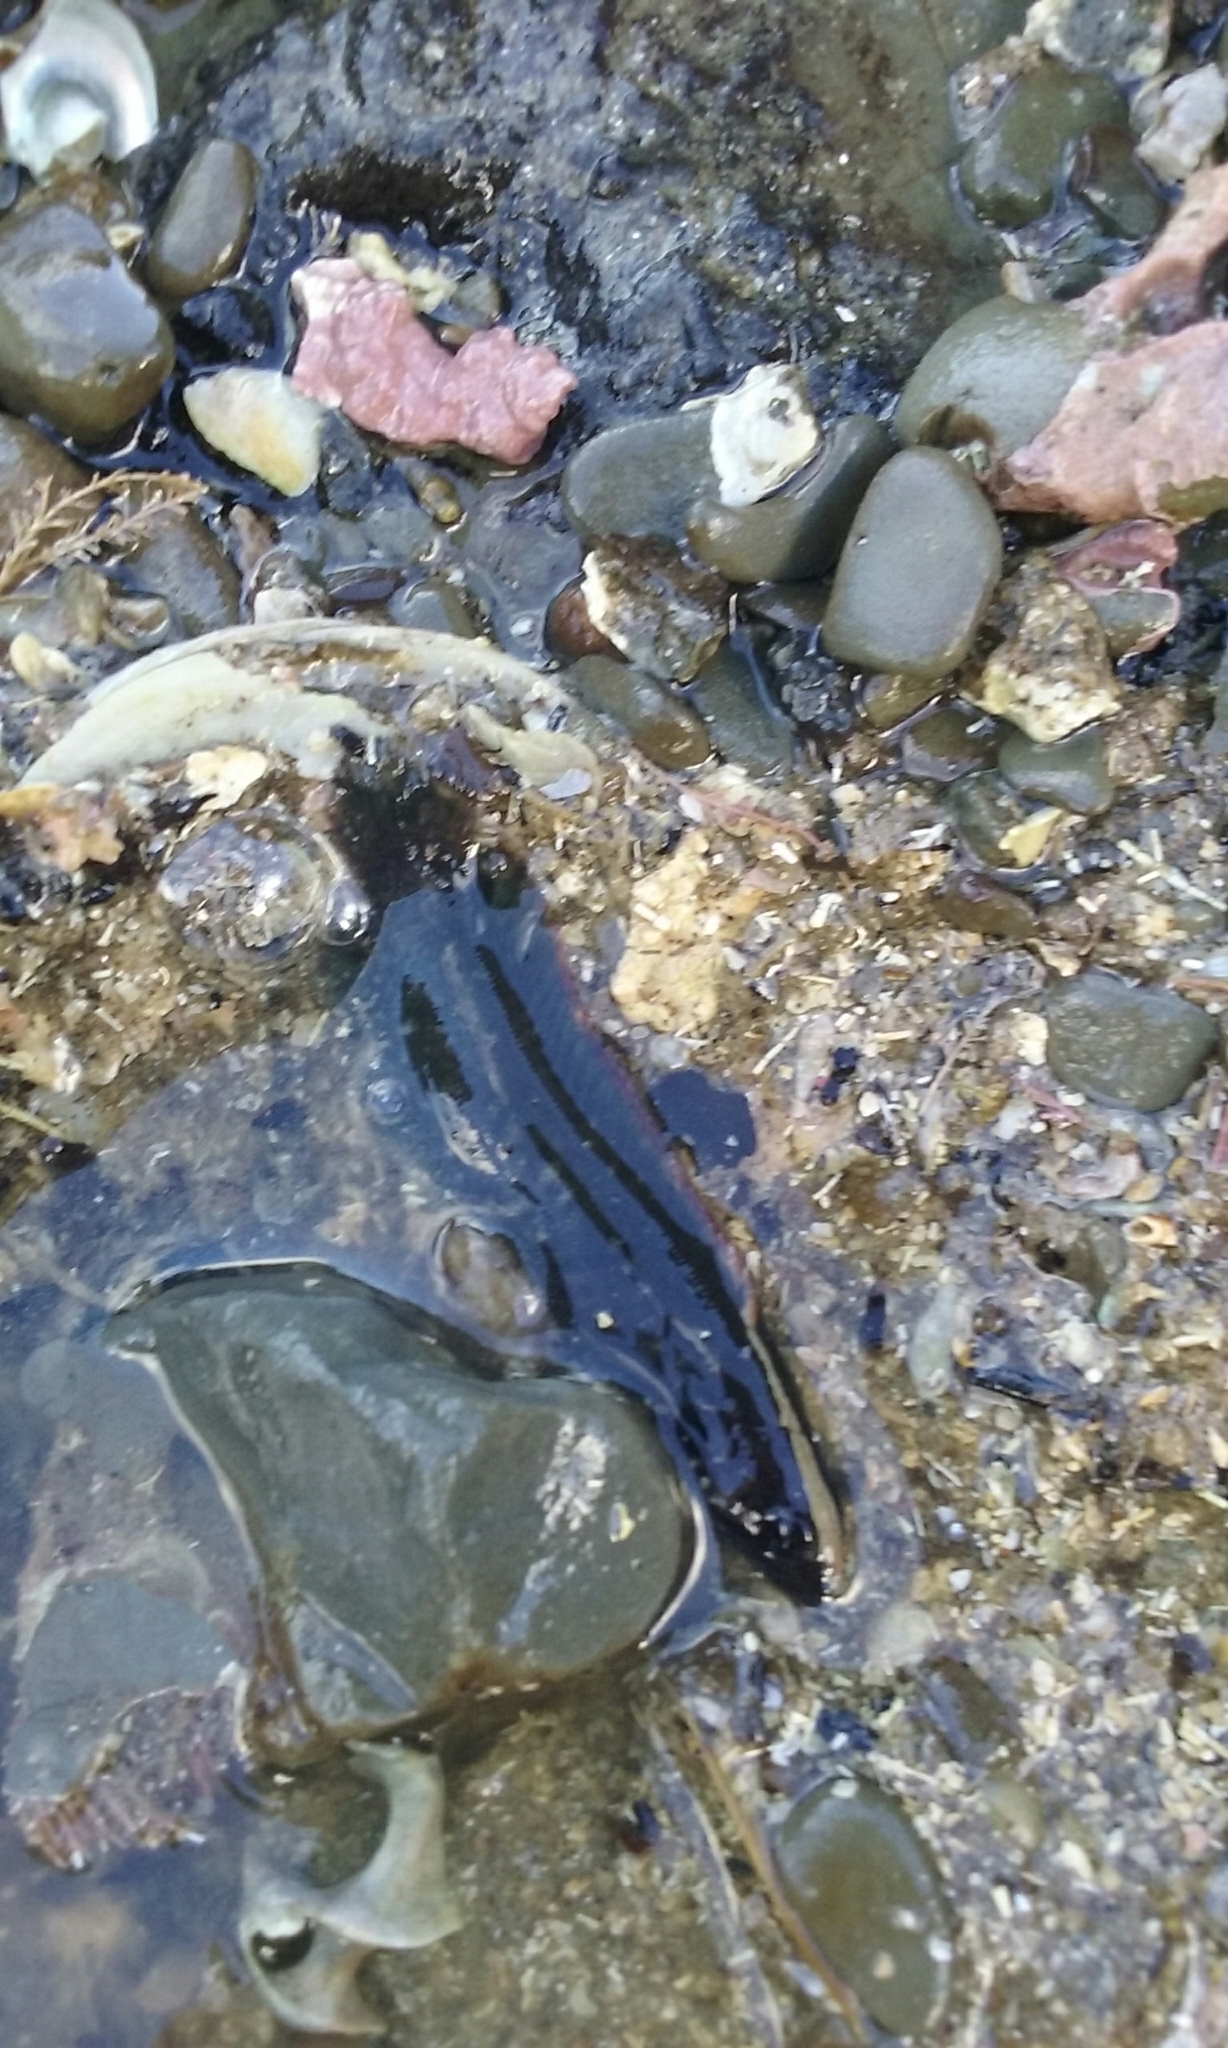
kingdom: Animalia
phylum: Chordata
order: Perciformes
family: Plesiopidae
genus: Acanthoclinus
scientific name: Acanthoclinus fuscus
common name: Olive rockfish
